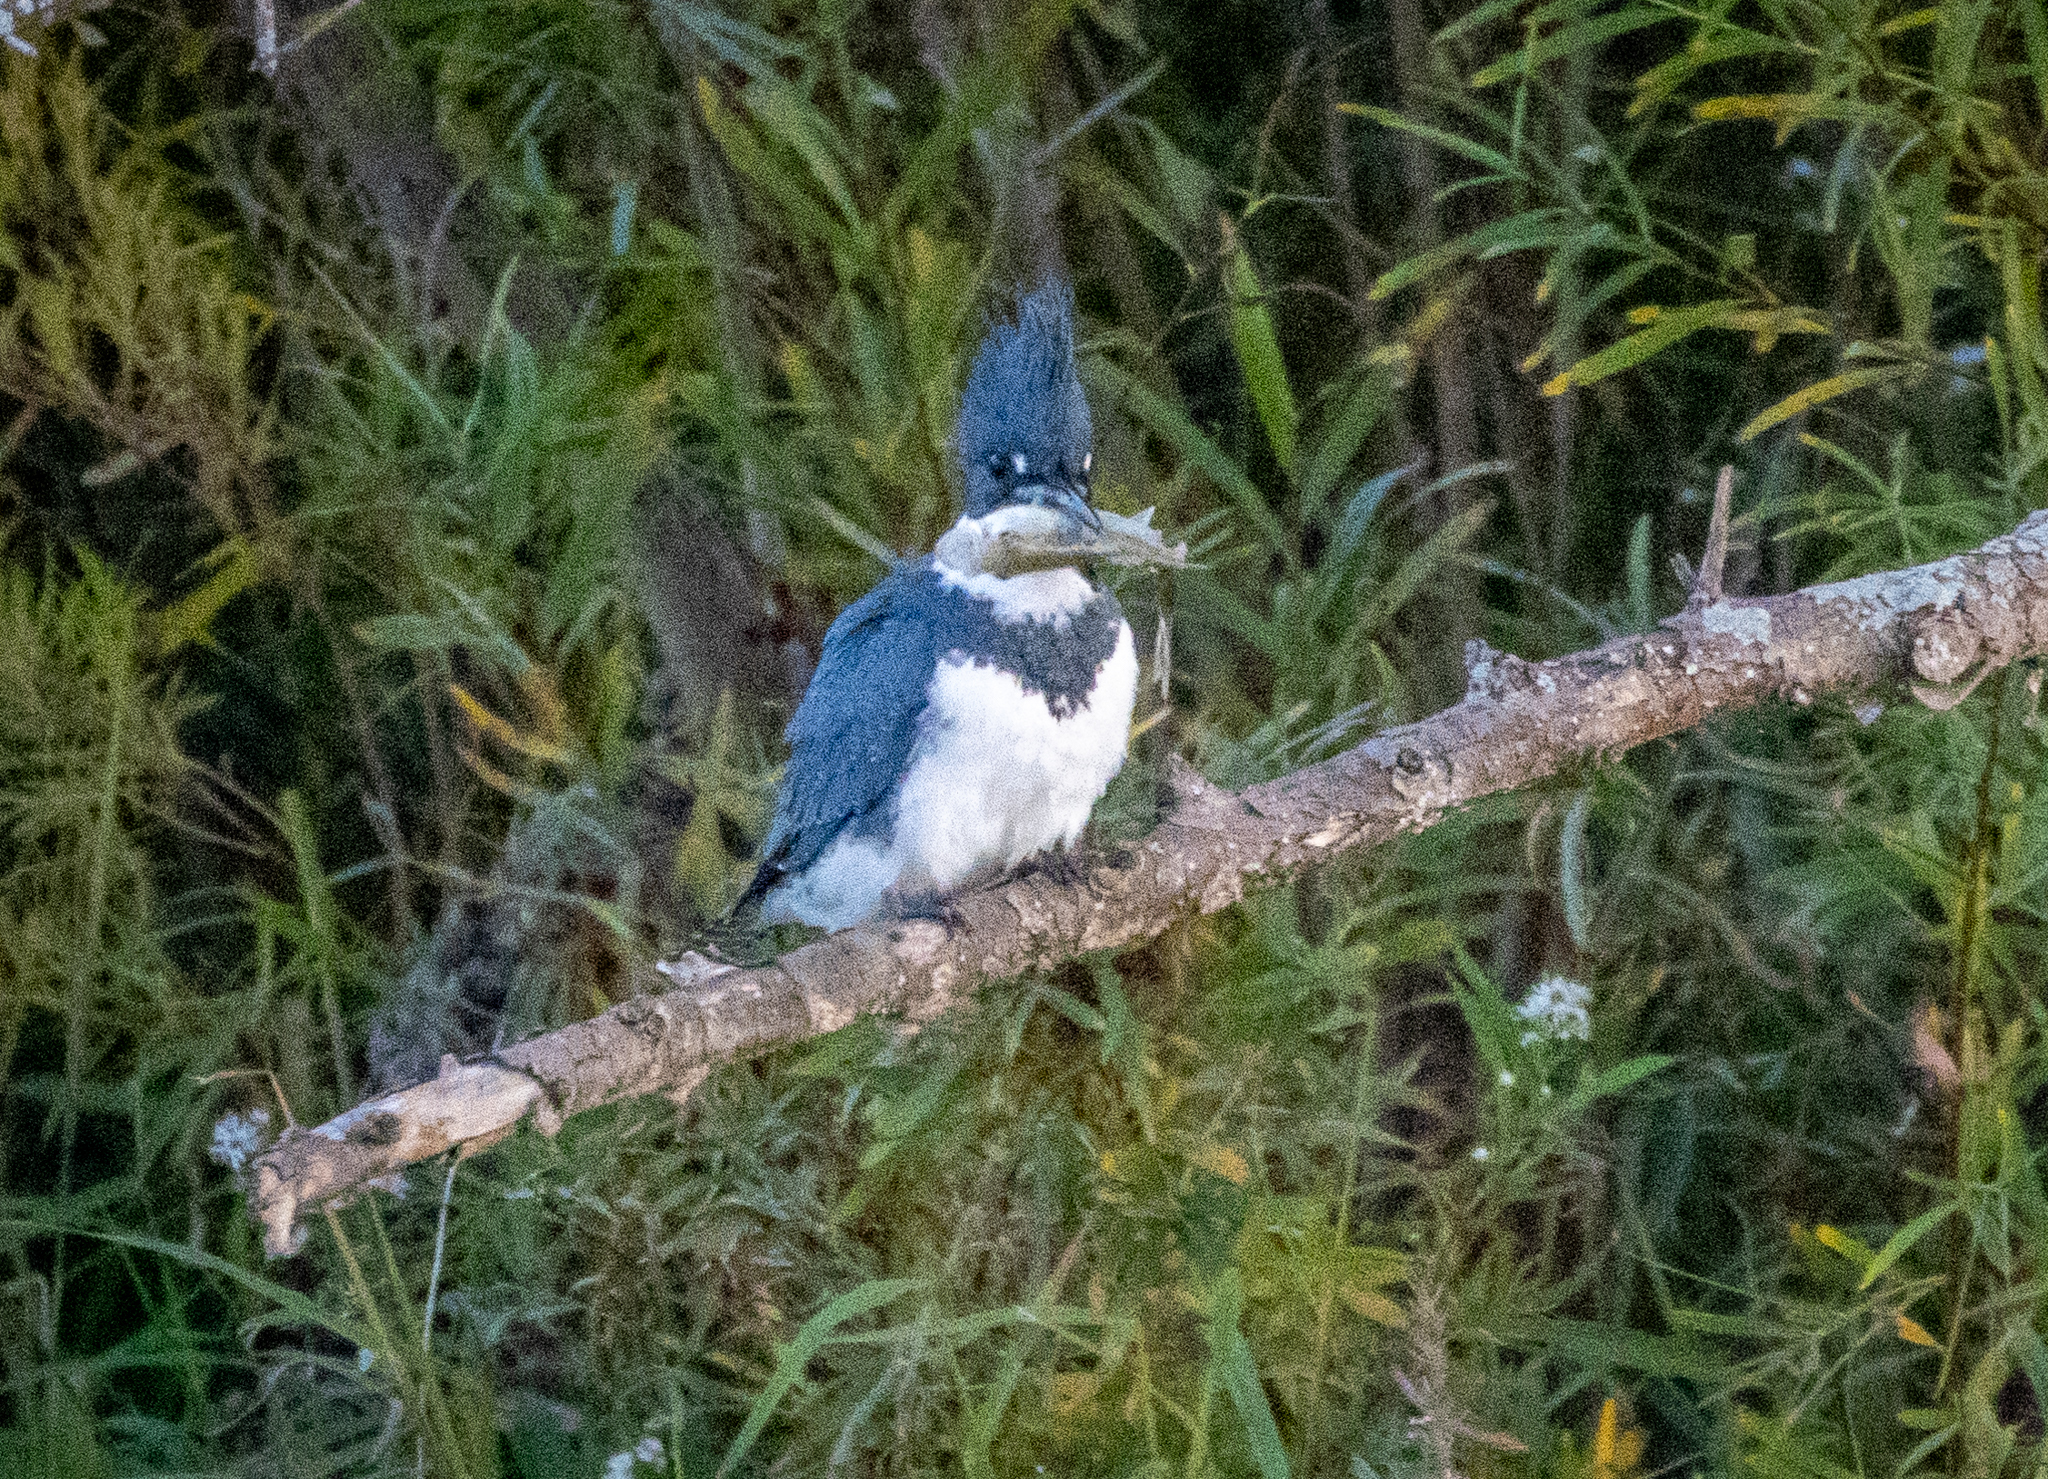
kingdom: Animalia
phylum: Chordata
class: Aves
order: Coraciiformes
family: Alcedinidae
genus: Megaceryle
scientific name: Megaceryle alcyon
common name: Belted kingfisher
